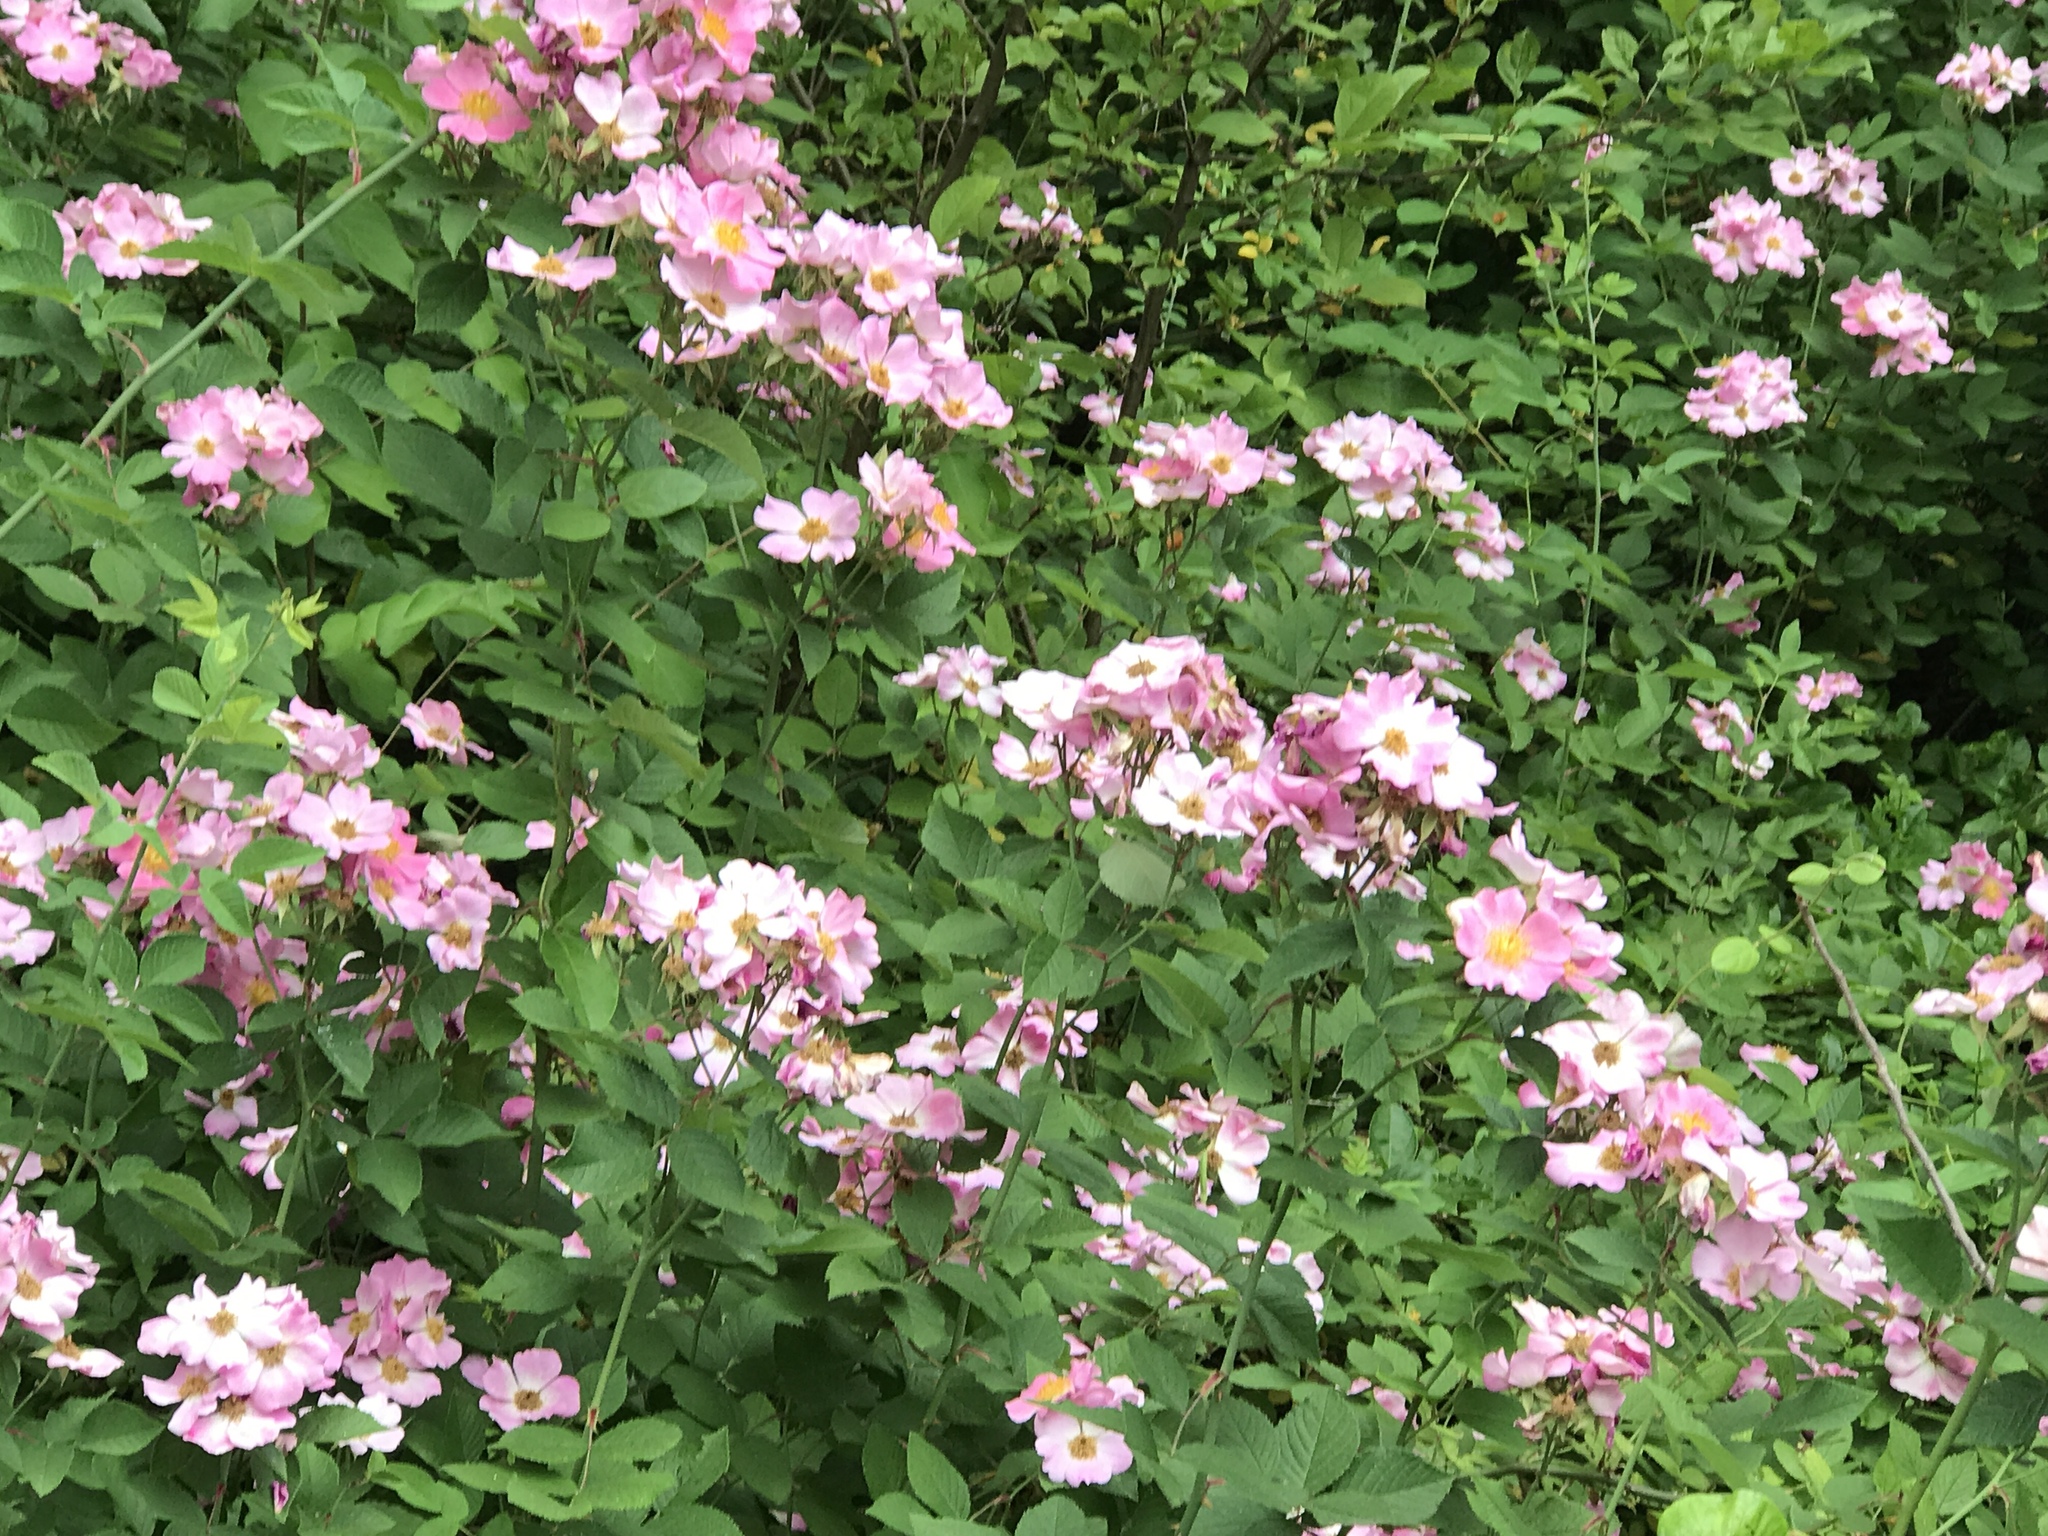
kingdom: Plantae
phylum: Tracheophyta
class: Magnoliopsida
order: Rosales
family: Rosaceae
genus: Rosa
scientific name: Rosa palustris
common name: Swamp rose
